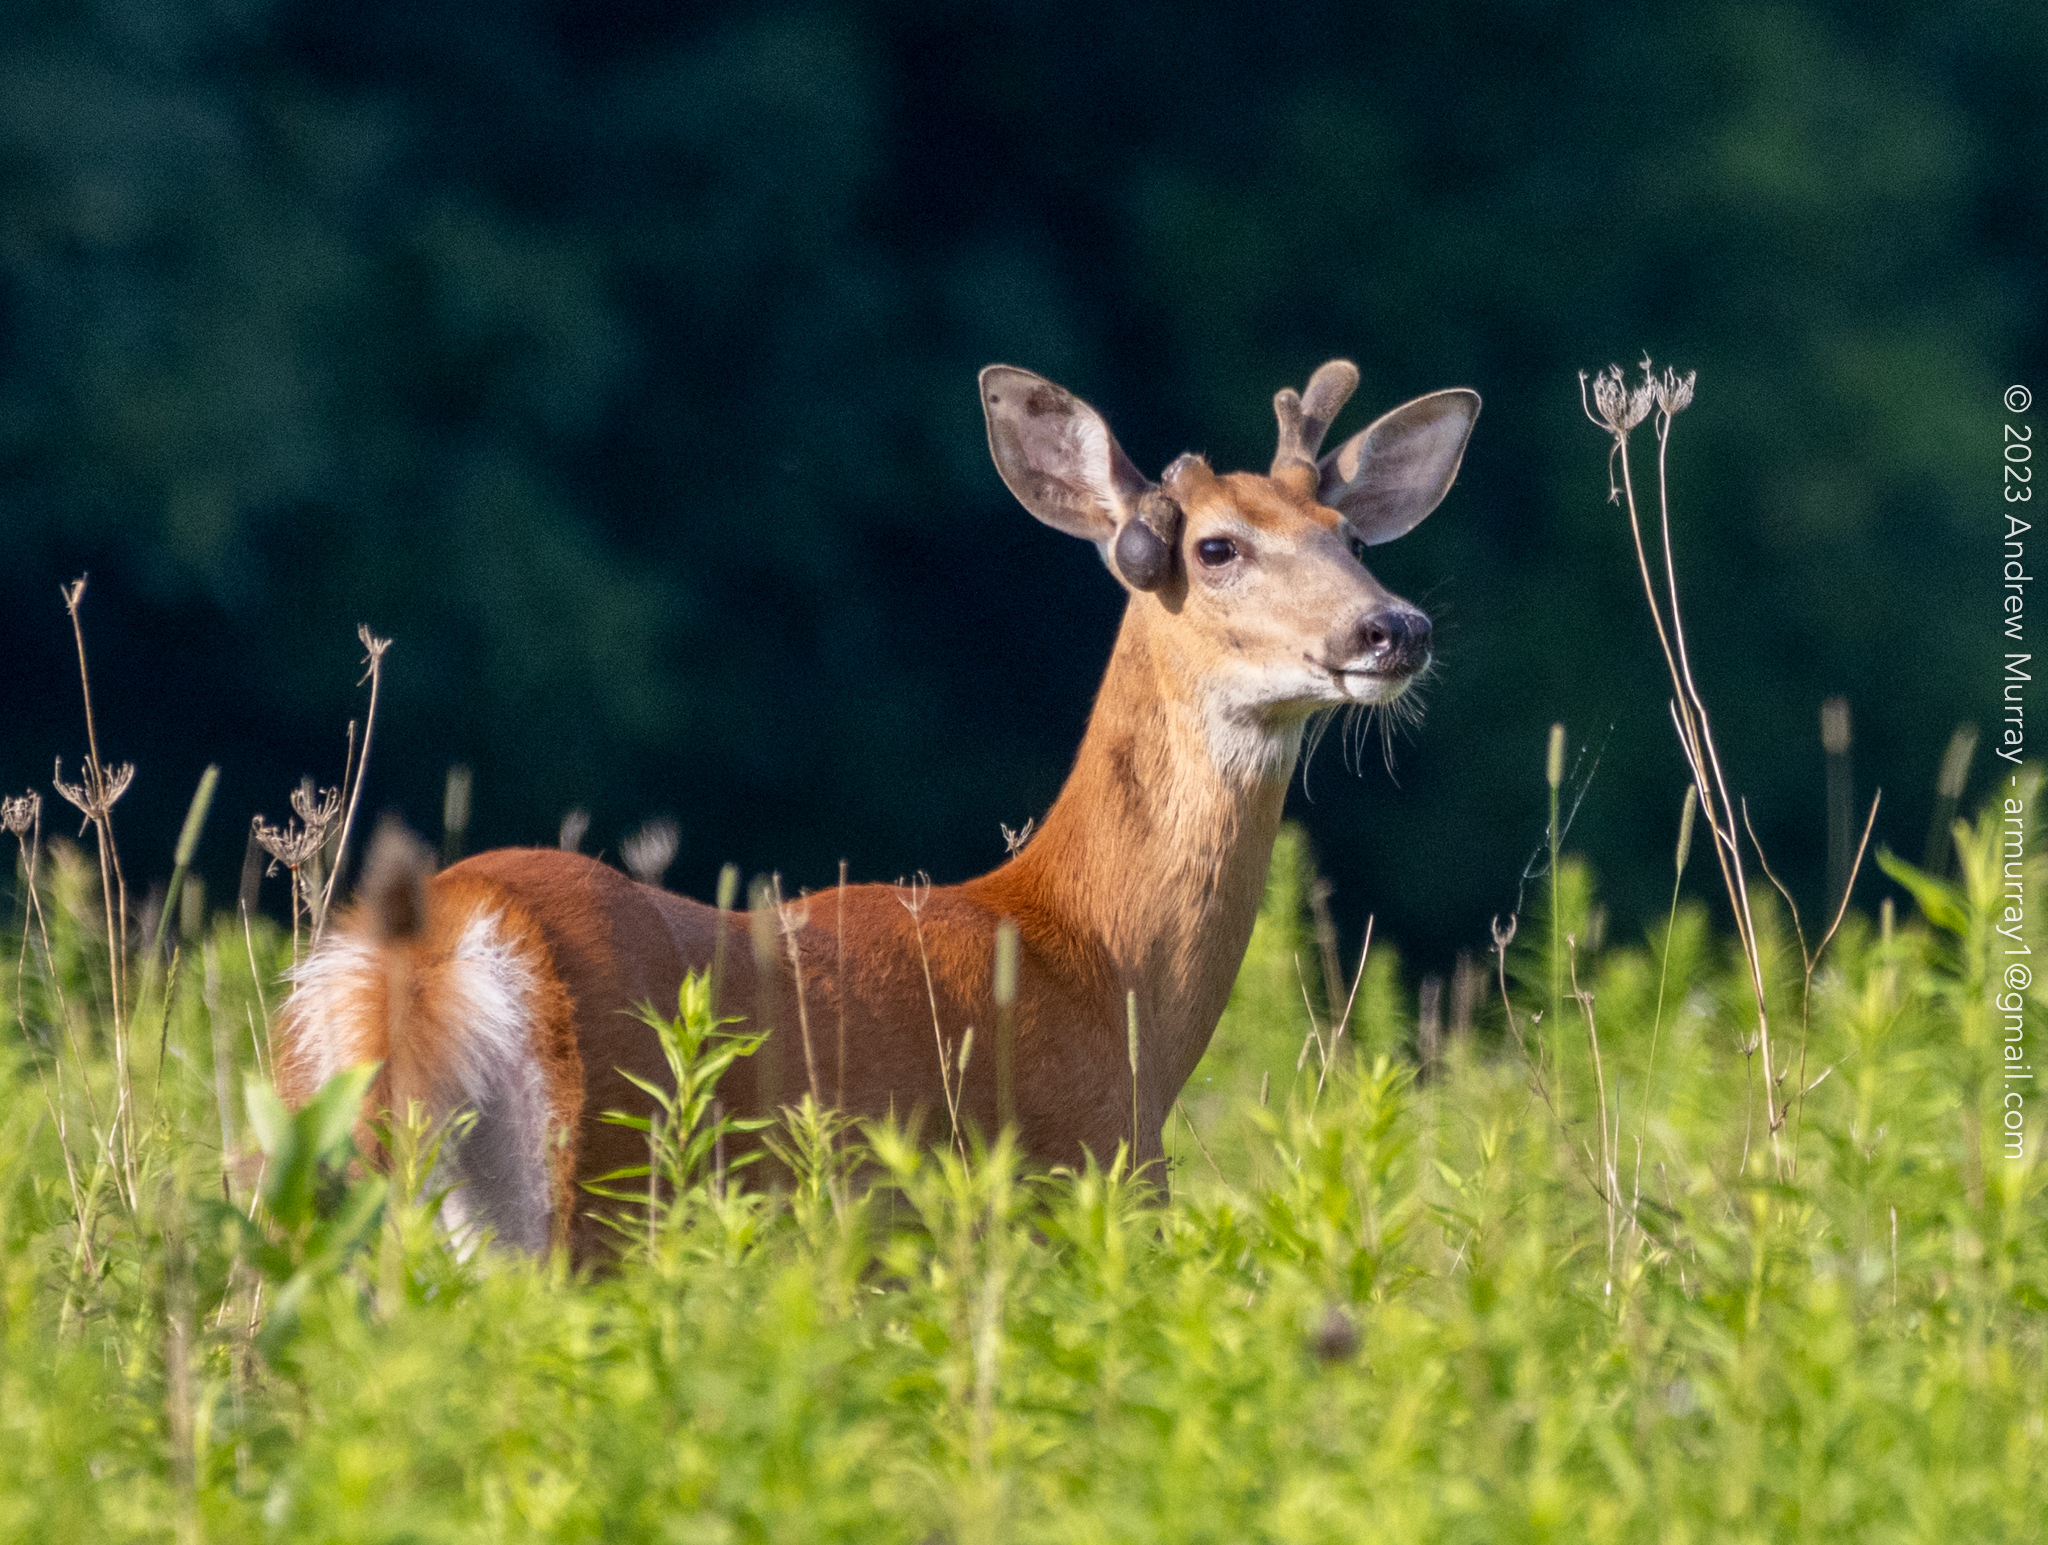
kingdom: Animalia
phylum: Chordata
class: Mammalia
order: Artiodactyla
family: Cervidae
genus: Odocoileus
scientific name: Odocoileus virginianus
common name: White-tailed deer
